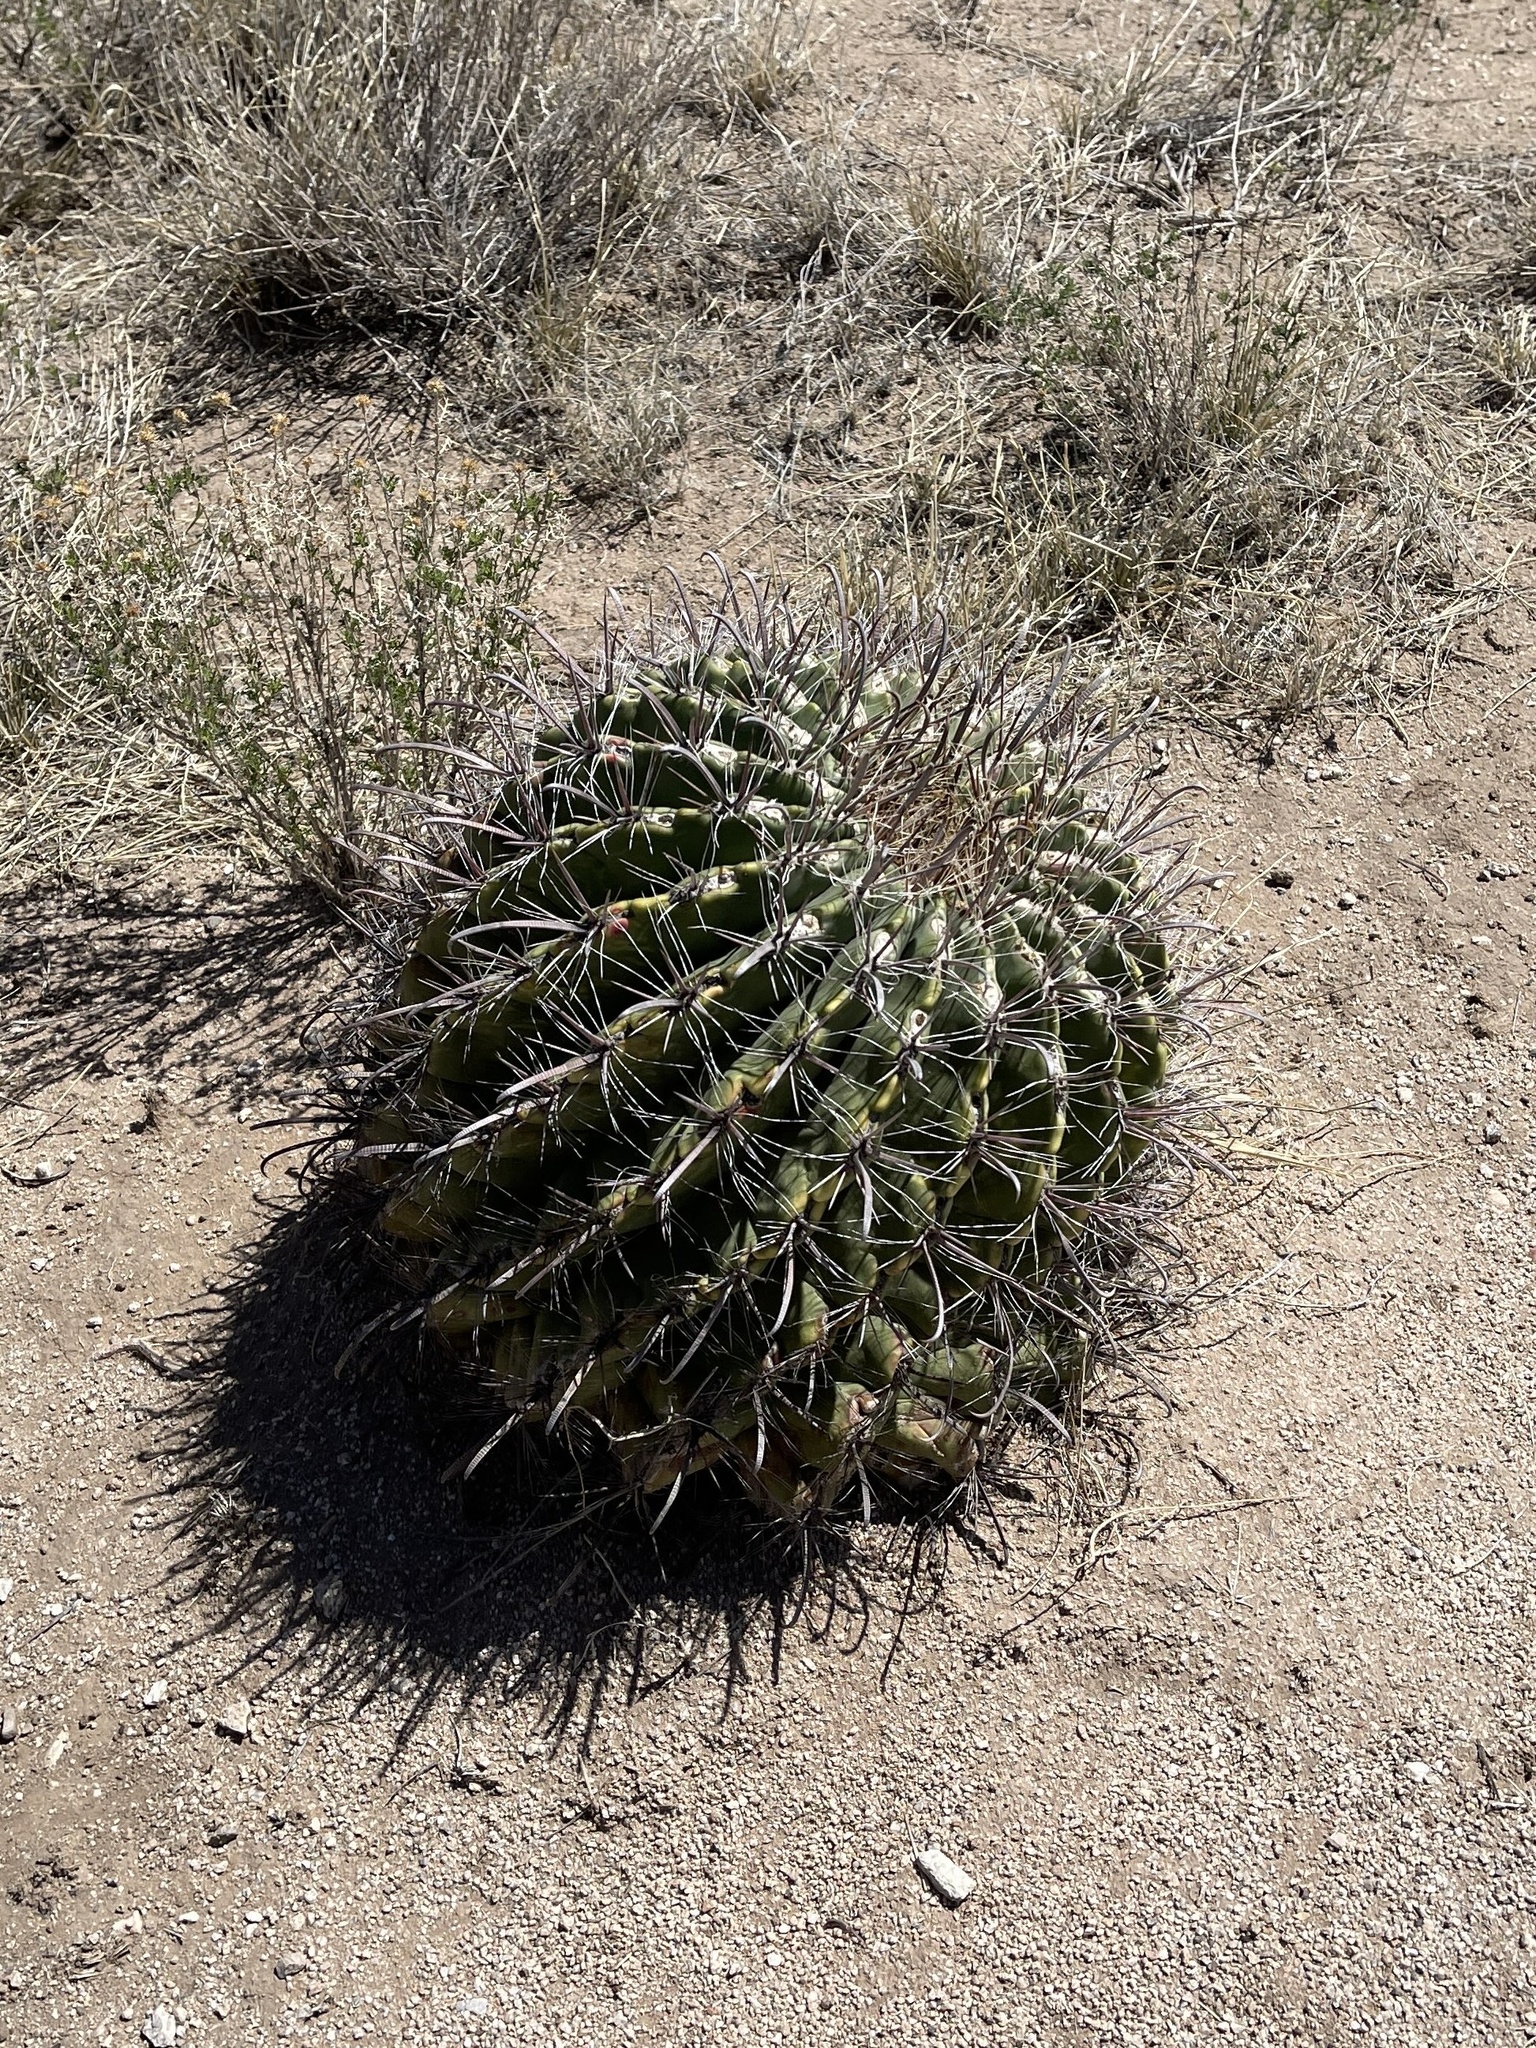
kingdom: Plantae
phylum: Tracheophyta
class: Magnoliopsida
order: Caryophyllales
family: Cactaceae
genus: Ferocactus
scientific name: Ferocactus wislizeni
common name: Candy barrel cactus
